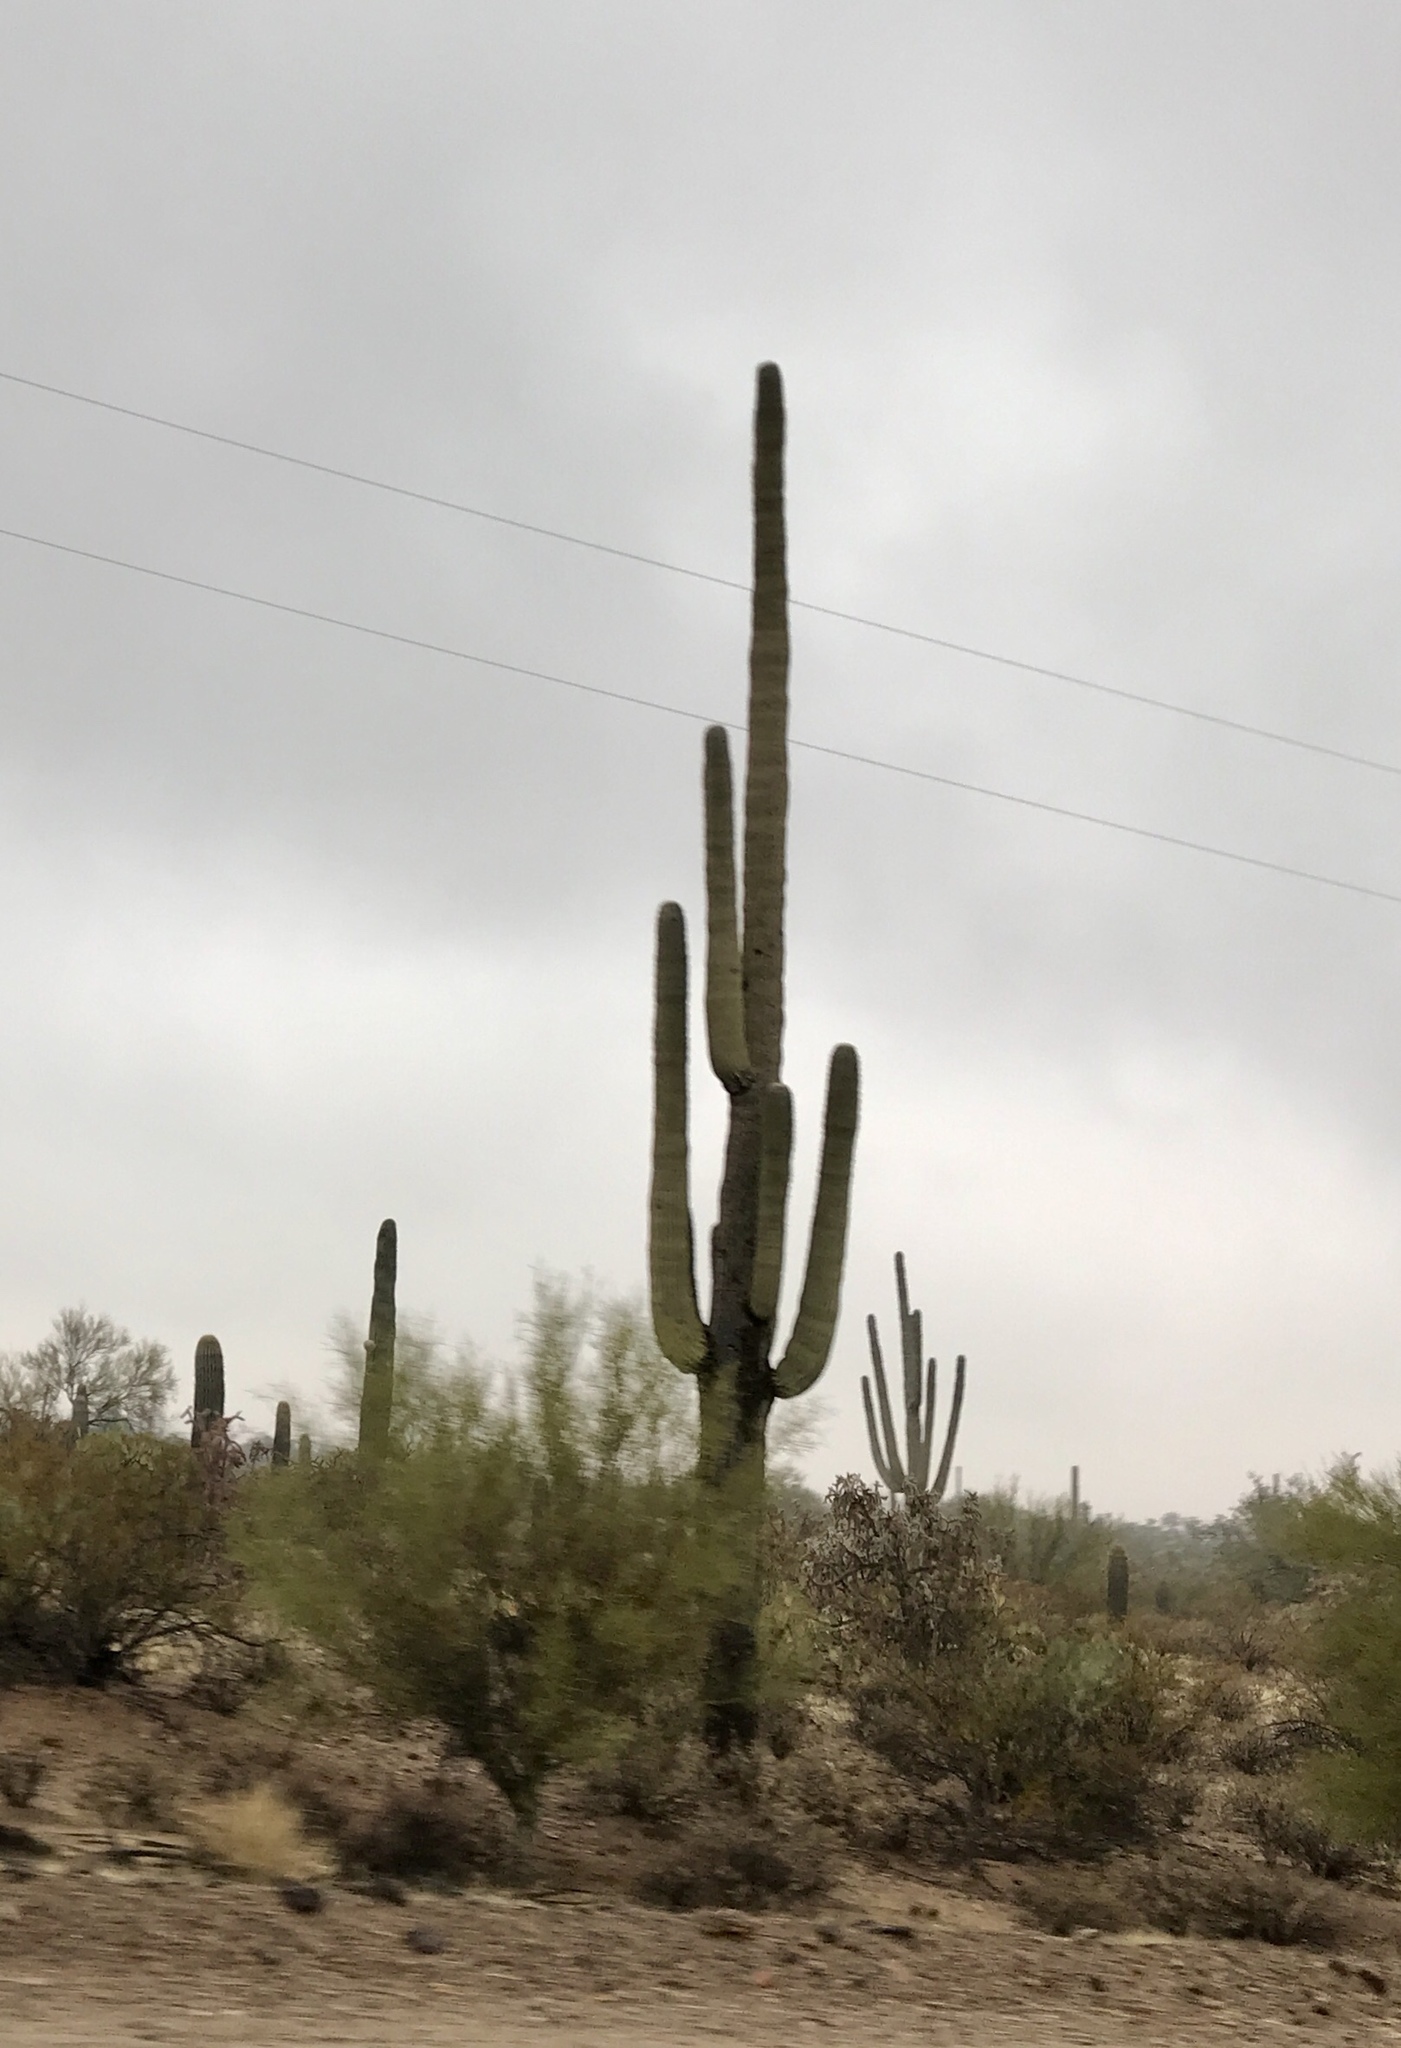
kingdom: Plantae
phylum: Tracheophyta
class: Magnoliopsida
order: Caryophyllales
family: Cactaceae
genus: Carnegiea
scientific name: Carnegiea gigantea
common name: Saguaro
